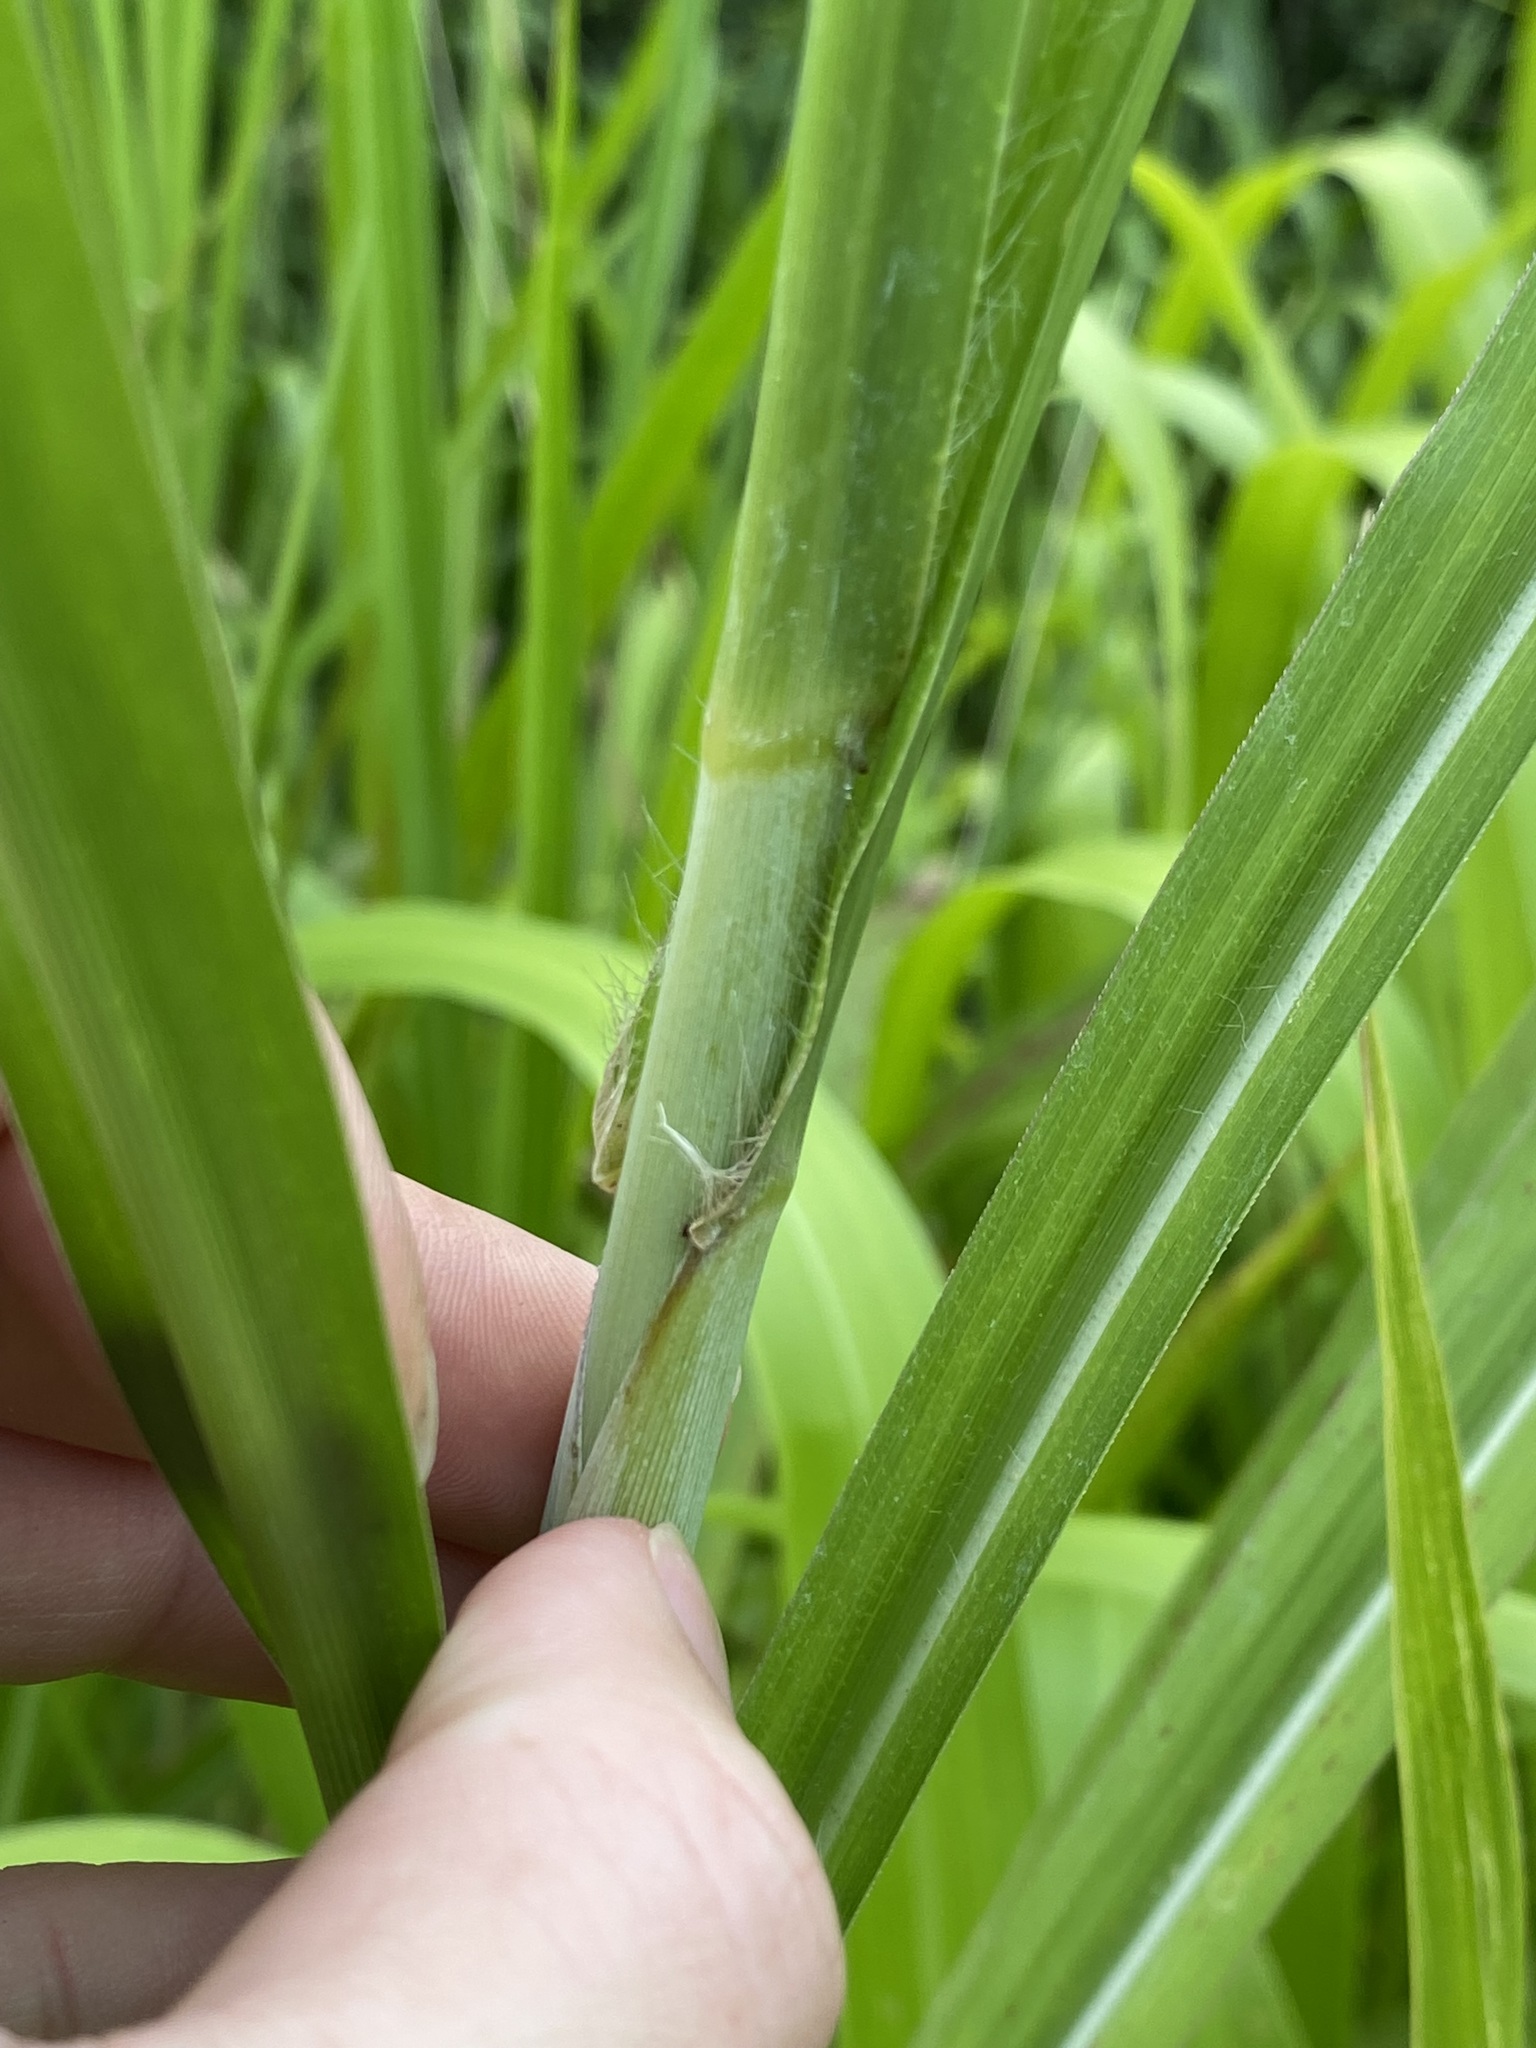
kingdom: Plantae
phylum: Tracheophyta
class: Liliopsida
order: Poales
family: Poaceae
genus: Megathyrsus
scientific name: Megathyrsus maximus
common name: Guineagrass
